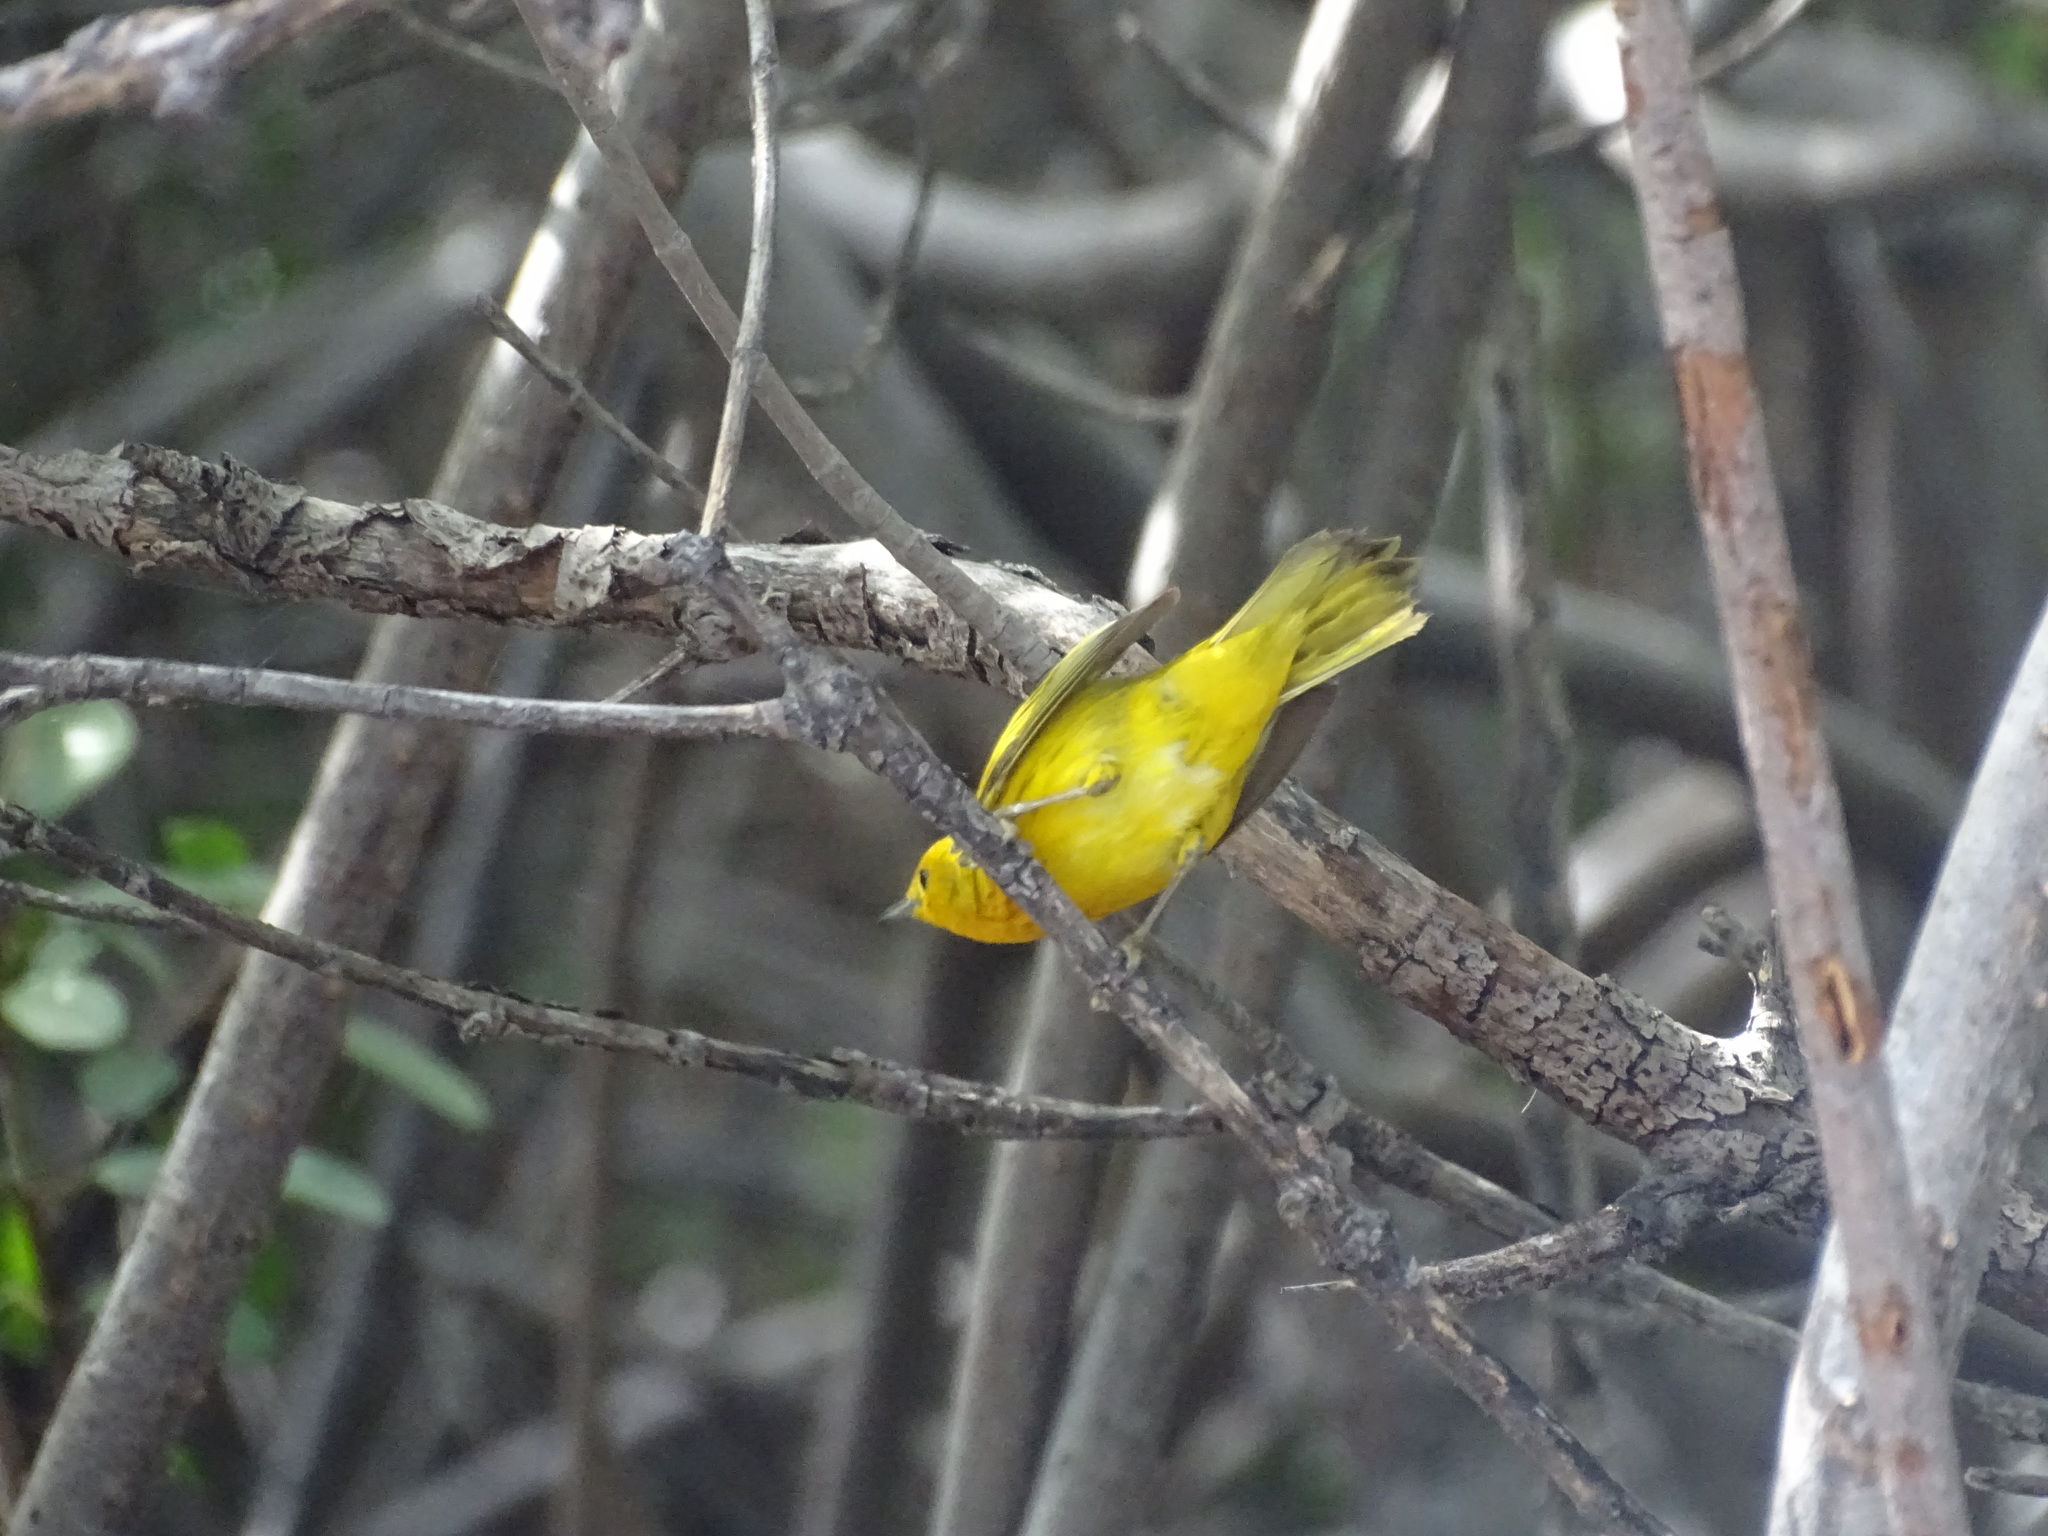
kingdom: Animalia
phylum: Chordata
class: Aves
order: Passeriformes
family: Parulidae
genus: Setophaga
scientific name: Setophaga petechia
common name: Yellow warbler
